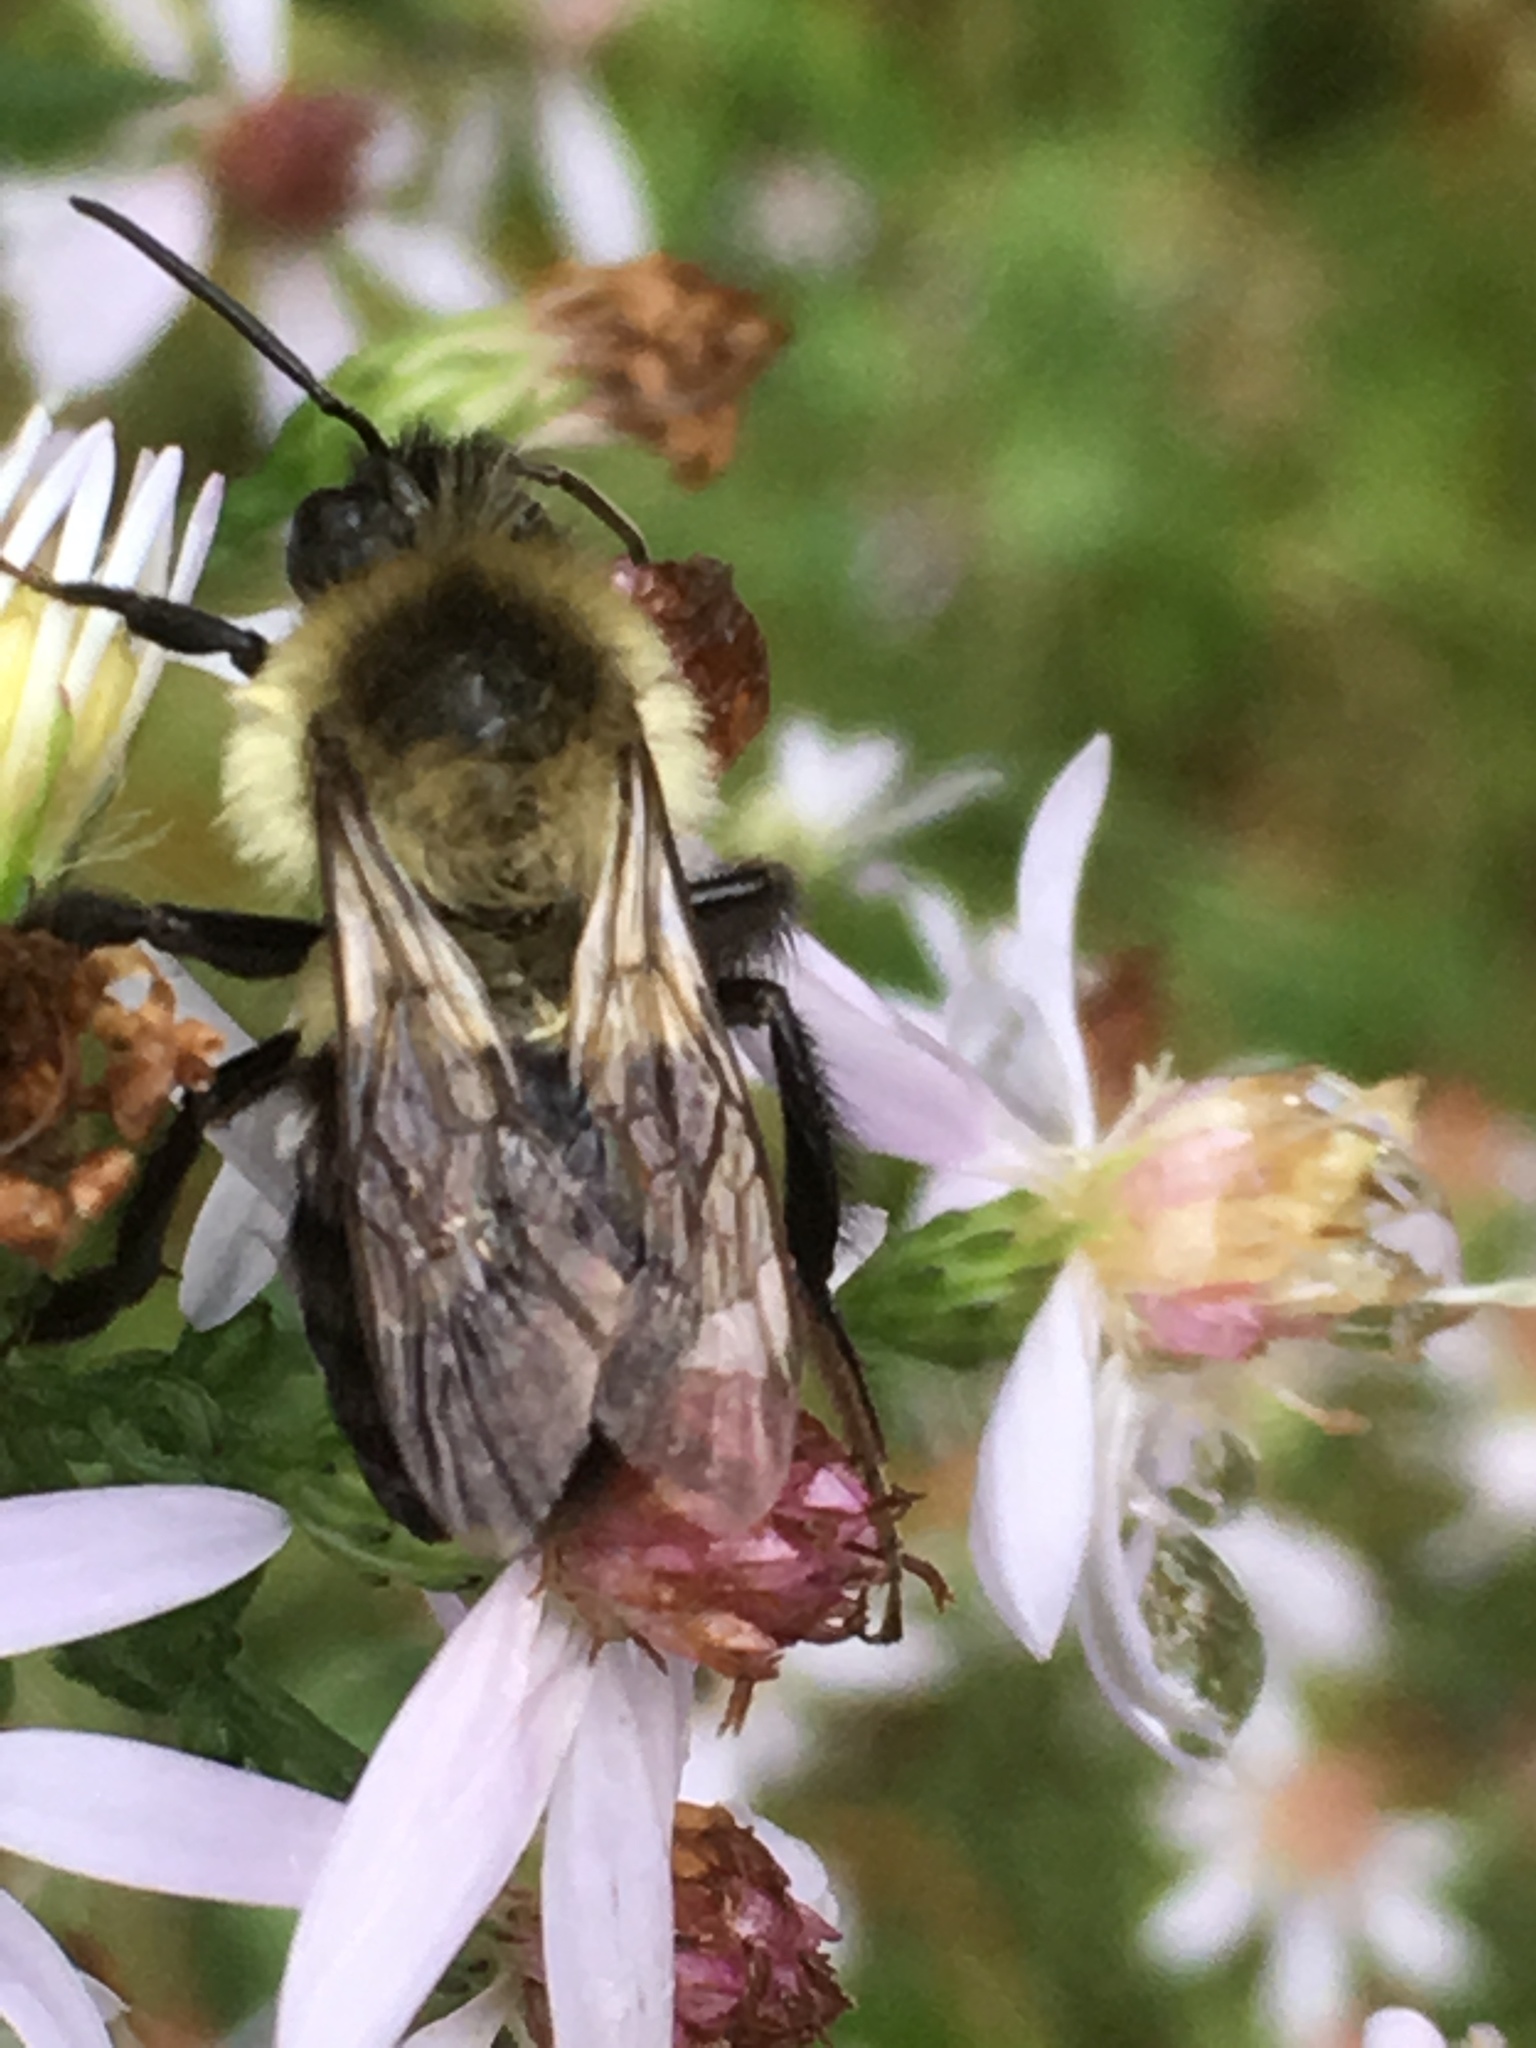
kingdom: Animalia
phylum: Arthropoda
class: Insecta
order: Hymenoptera
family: Apidae
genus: Bombus
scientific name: Bombus impatiens
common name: Common eastern bumble bee
